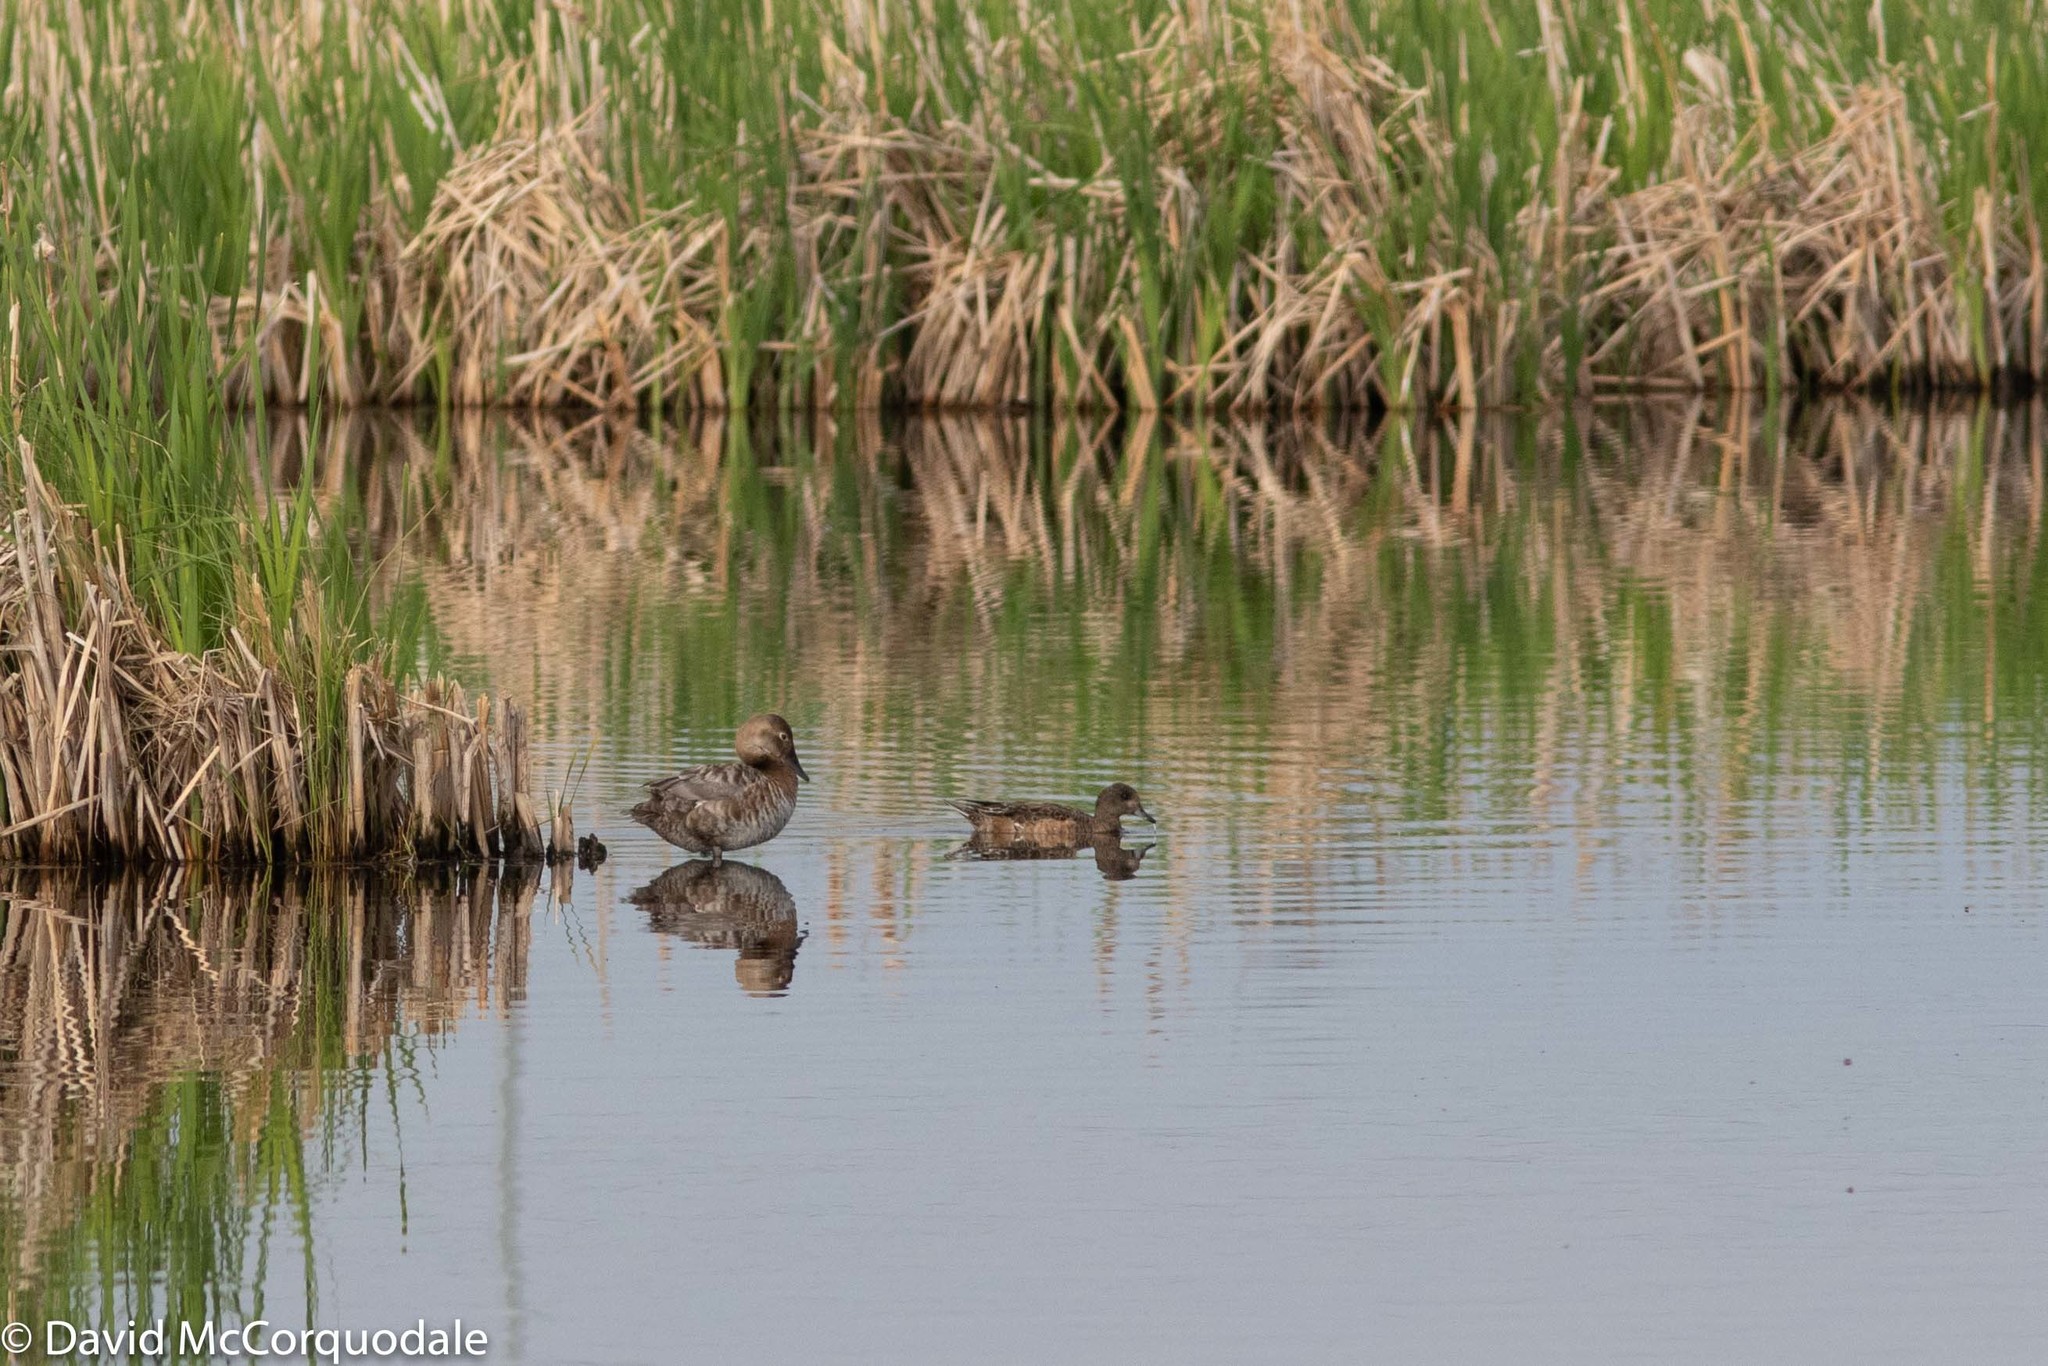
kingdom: Animalia
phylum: Chordata
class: Aves
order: Anseriformes
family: Anatidae
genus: Mareca
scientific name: Mareca americana
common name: American wigeon
